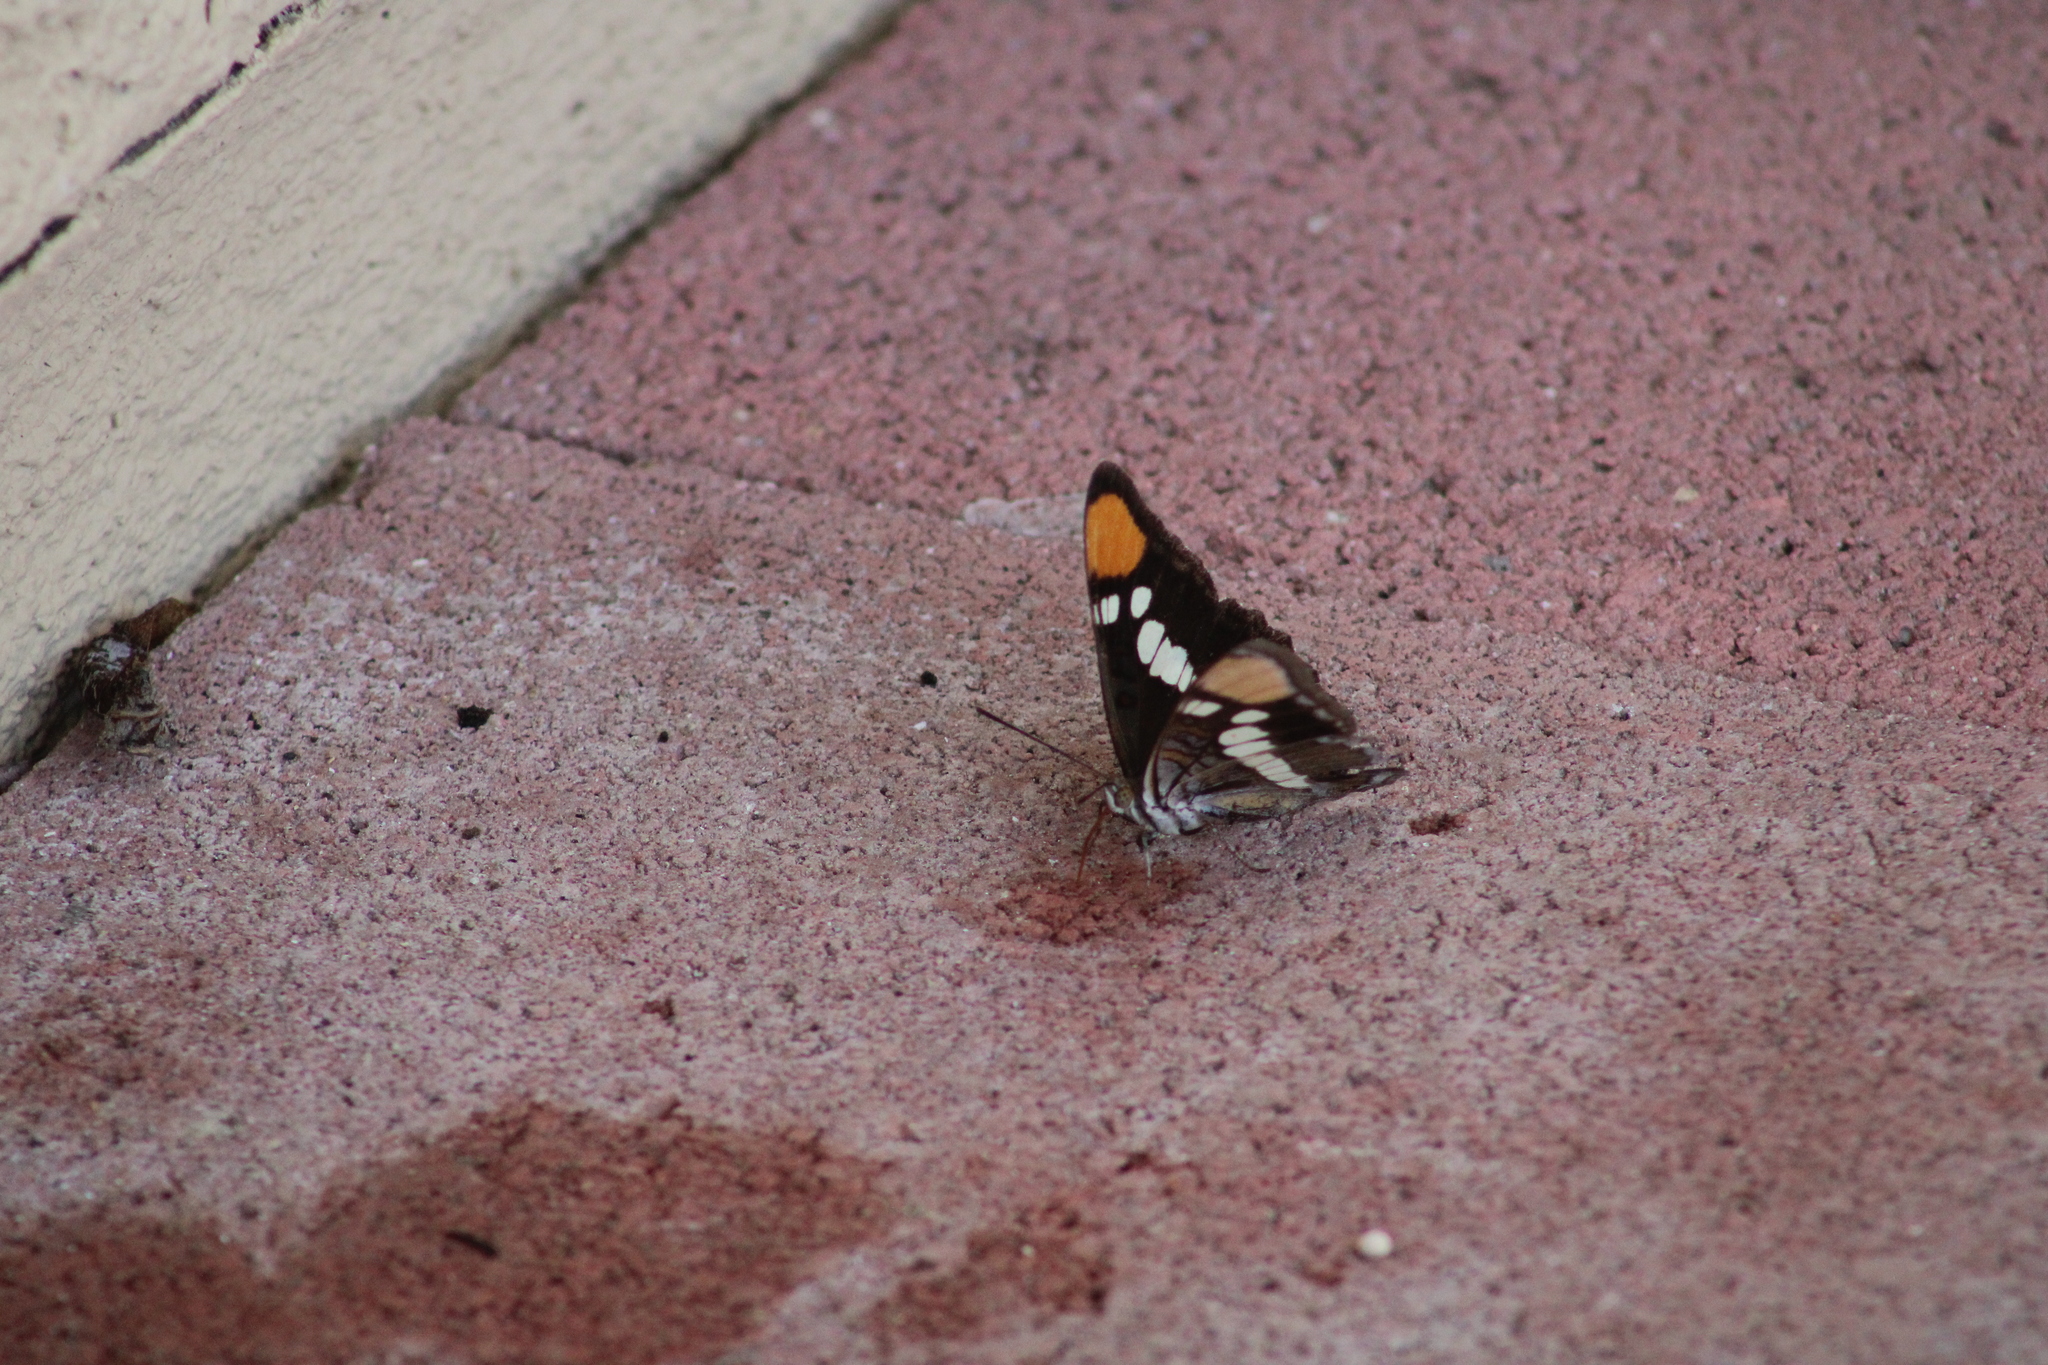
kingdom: Animalia
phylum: Arthropoda
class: Insecta
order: Lepidoptera
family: Nymphalidae
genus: Limenitis
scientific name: Limenitis bredowii
